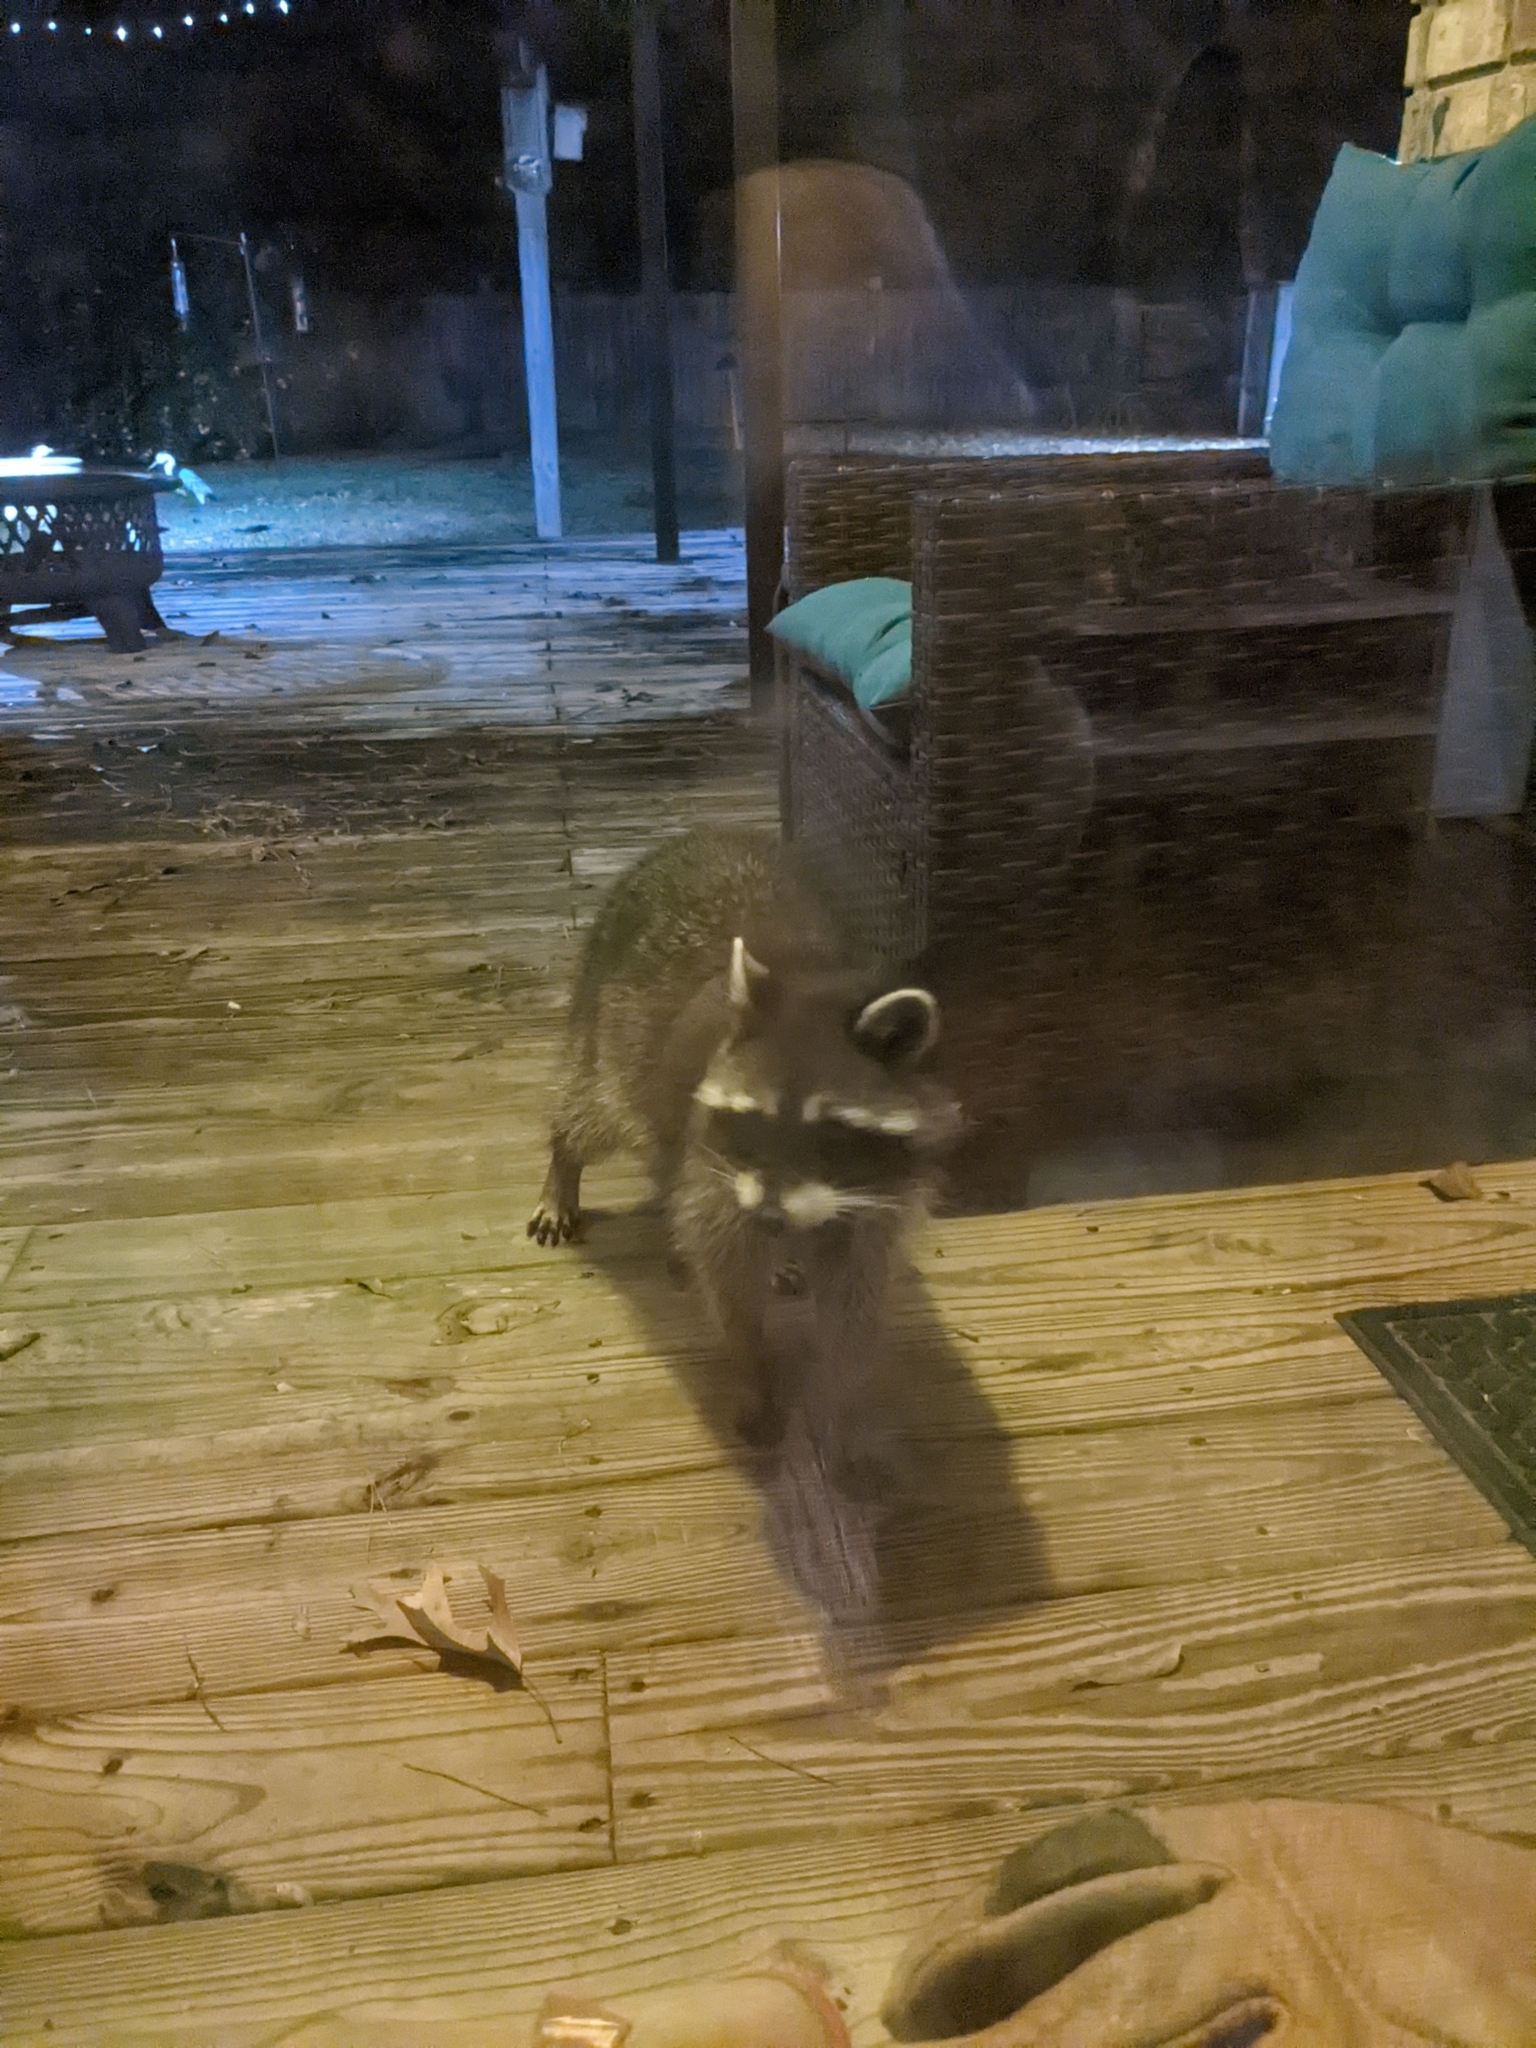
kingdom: Animalia
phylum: Chordata
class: Mammalia
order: Carnivora
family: Procyonidae
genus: Procyon
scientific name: Procyon lotor
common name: Raccoon
